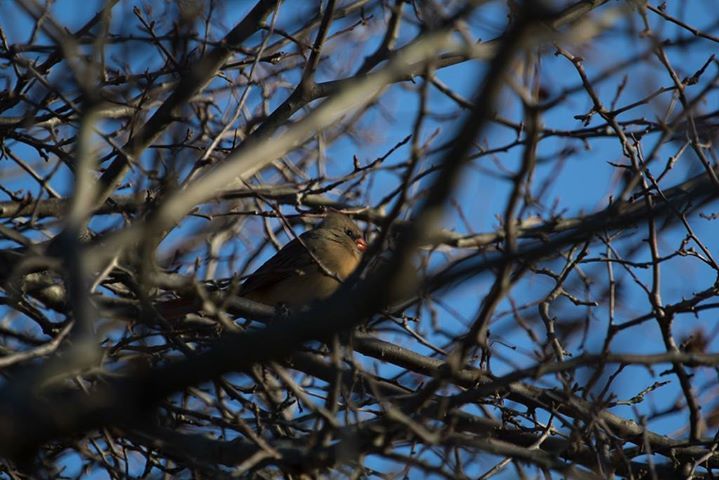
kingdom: Animalia
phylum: Chordata
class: Aves
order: Passeriformes
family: Cardinalidae
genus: Cardinalis
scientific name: Cardinalis cardinalis
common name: Northern cardinal
